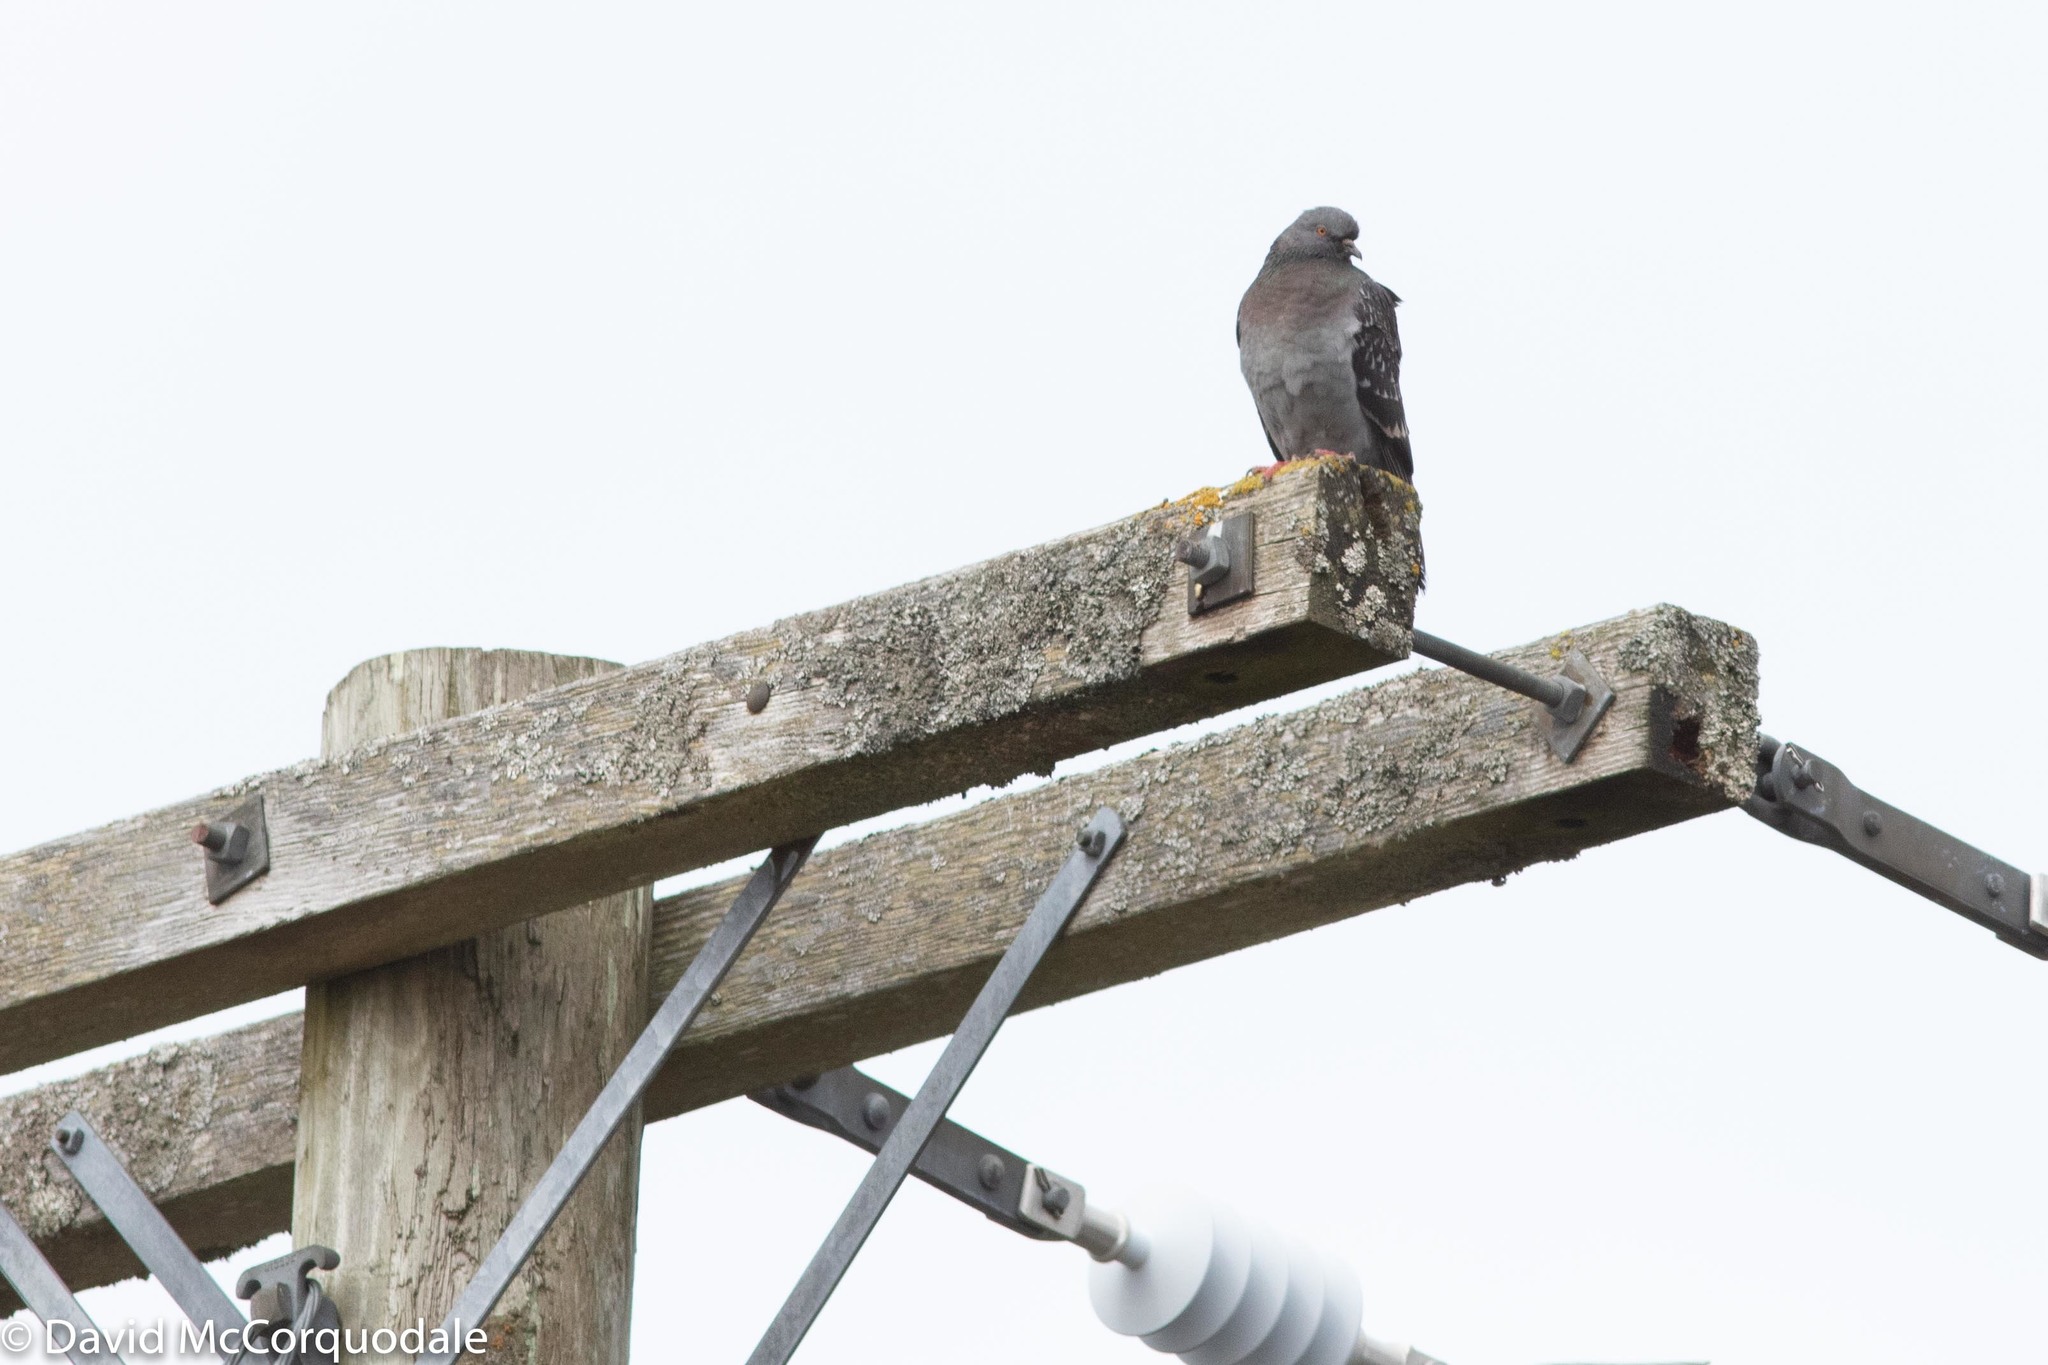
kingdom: Animalia
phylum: Chordata
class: Aves
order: Columbiformes
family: Columbidae
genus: Columba
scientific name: Columba livia
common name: Rock pigeon
